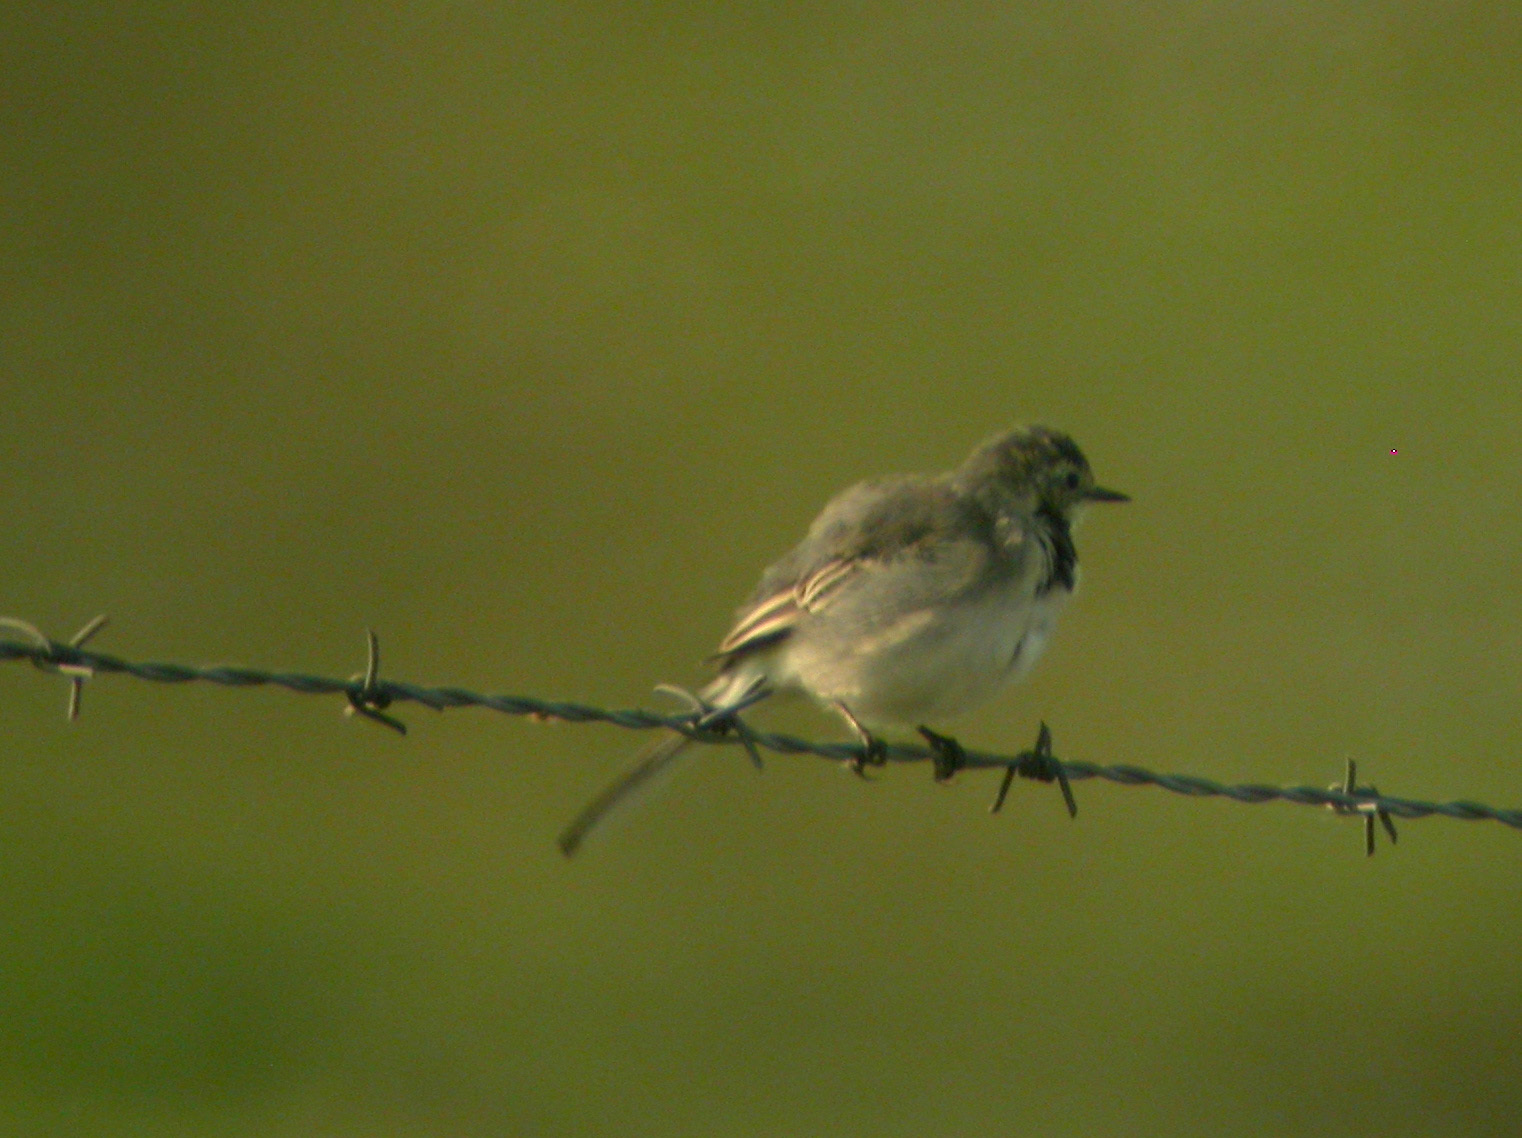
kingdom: Animalia
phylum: Chordata
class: Aves
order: Passeriformes
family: Motacillidae
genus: Motacilla
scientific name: Motacilla alba
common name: White wagtail
